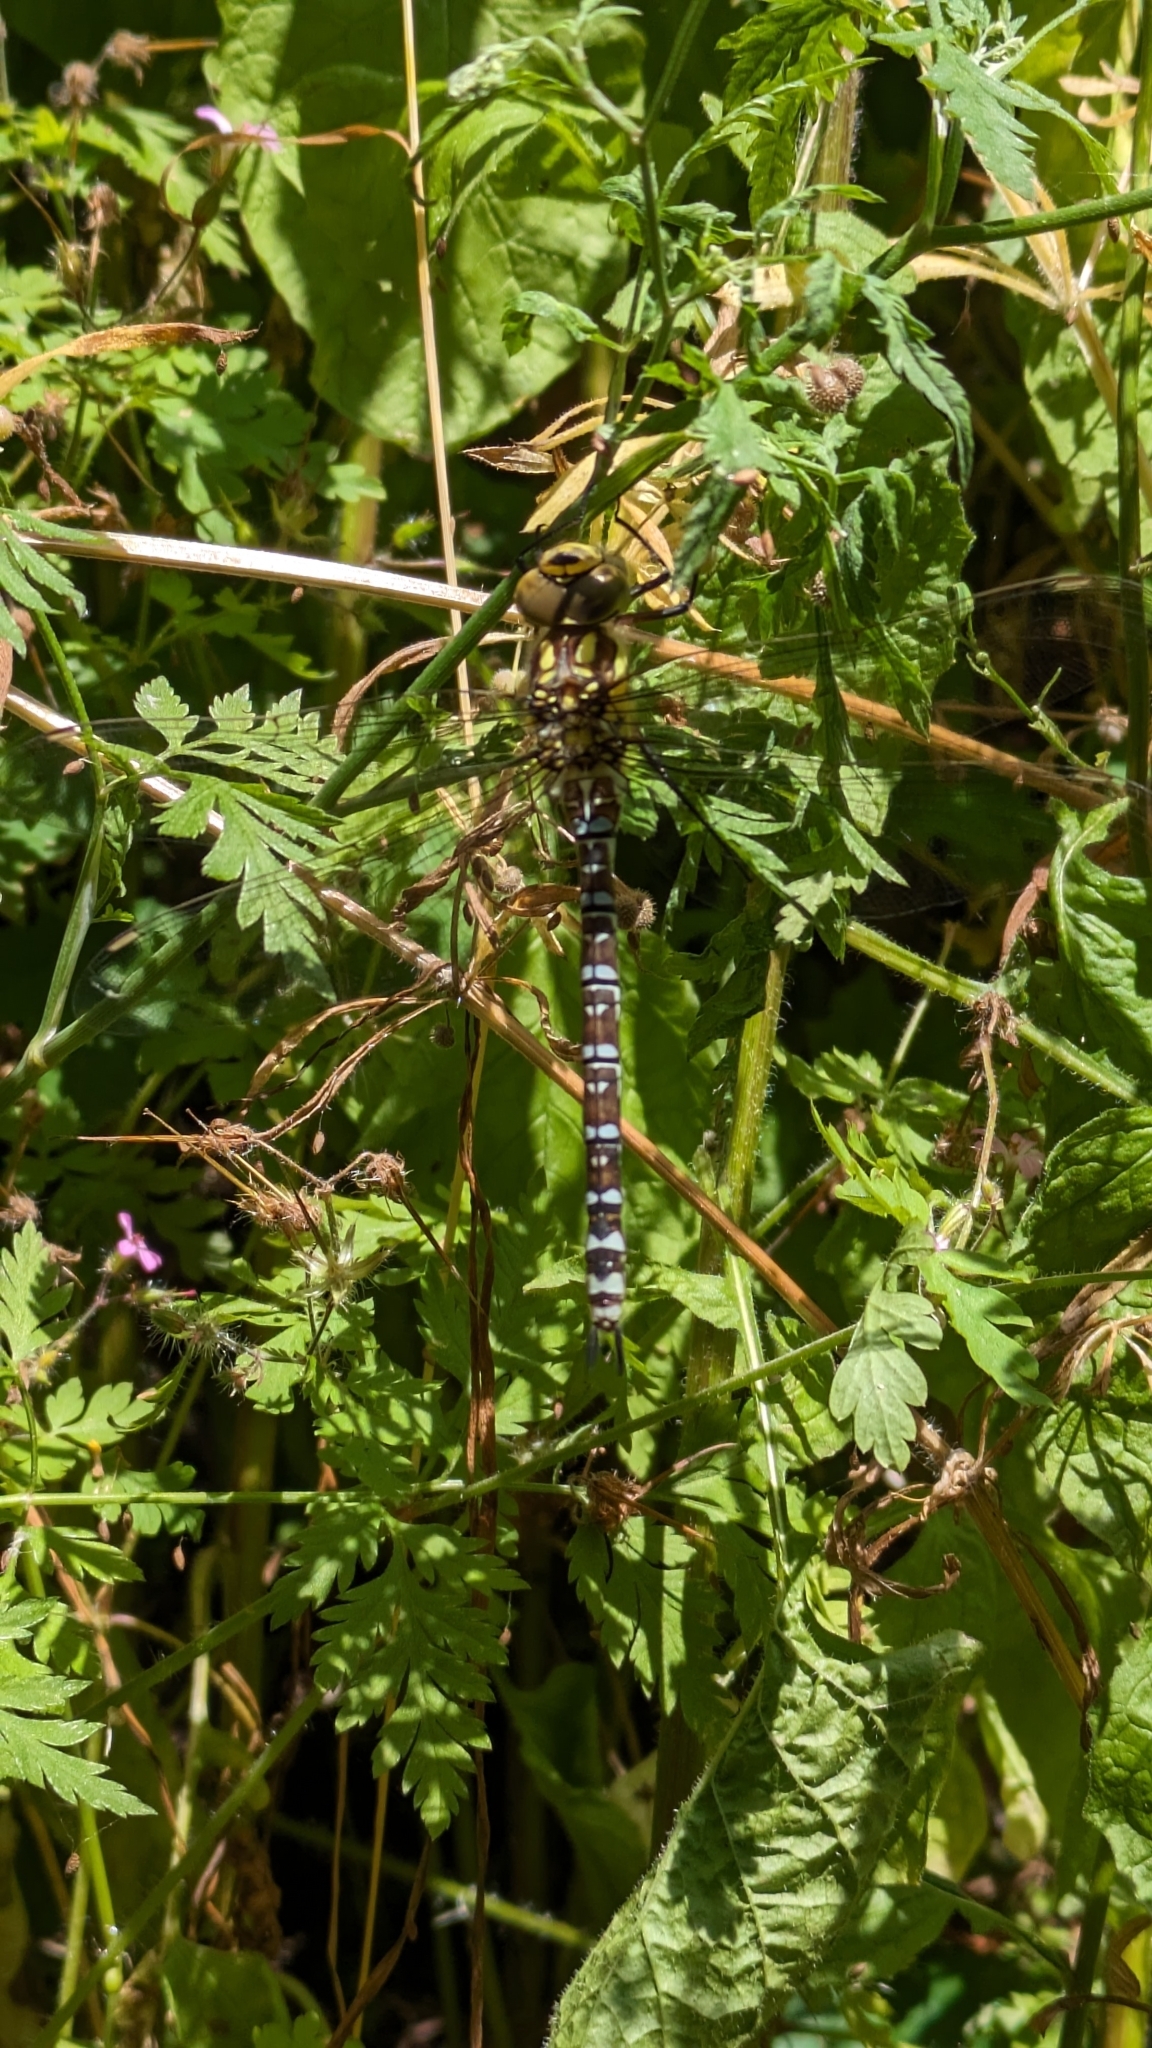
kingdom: Animalia
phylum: Arthropoda
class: Insecta
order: Odonata
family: Aeshnidae
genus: Aeshna
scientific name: Aeshna cyanea
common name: Southern hawker
